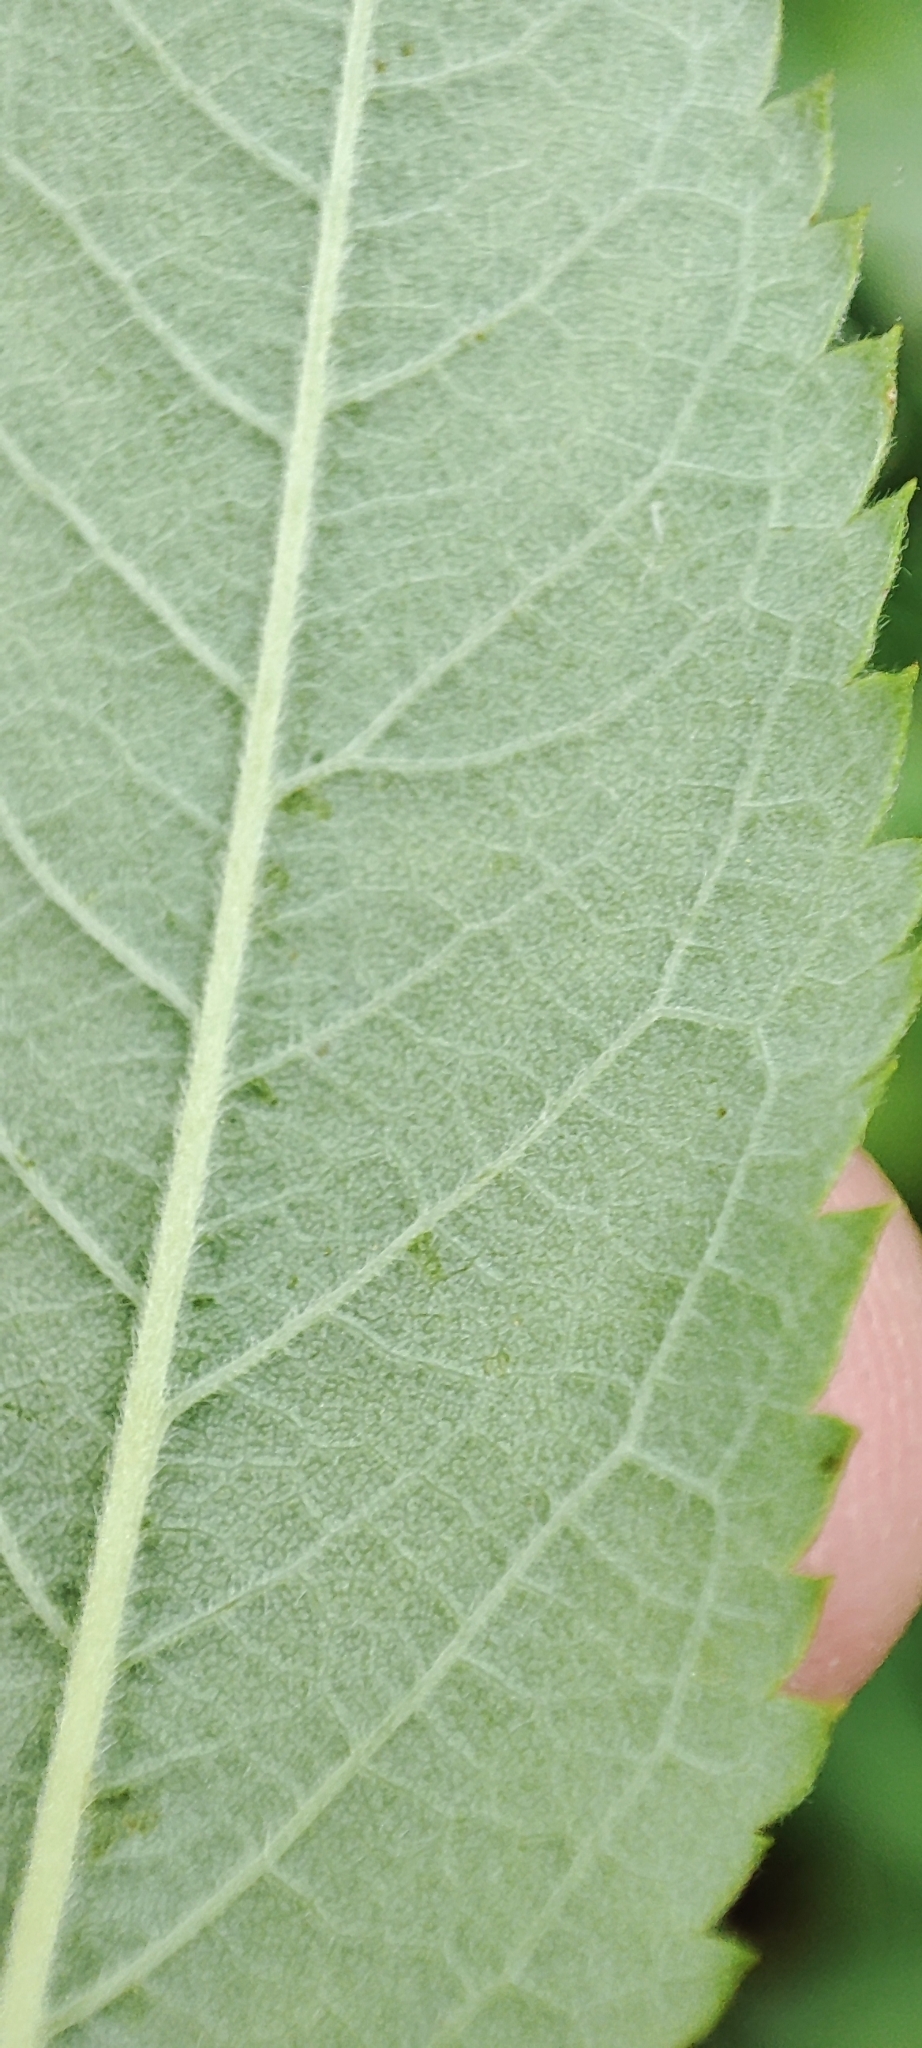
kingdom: Plantae
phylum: Tracheophyta
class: Magnoliopsida
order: Rosales
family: Rosaceae
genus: Rosa
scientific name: Rosa majalis
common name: Cinnamon rose
